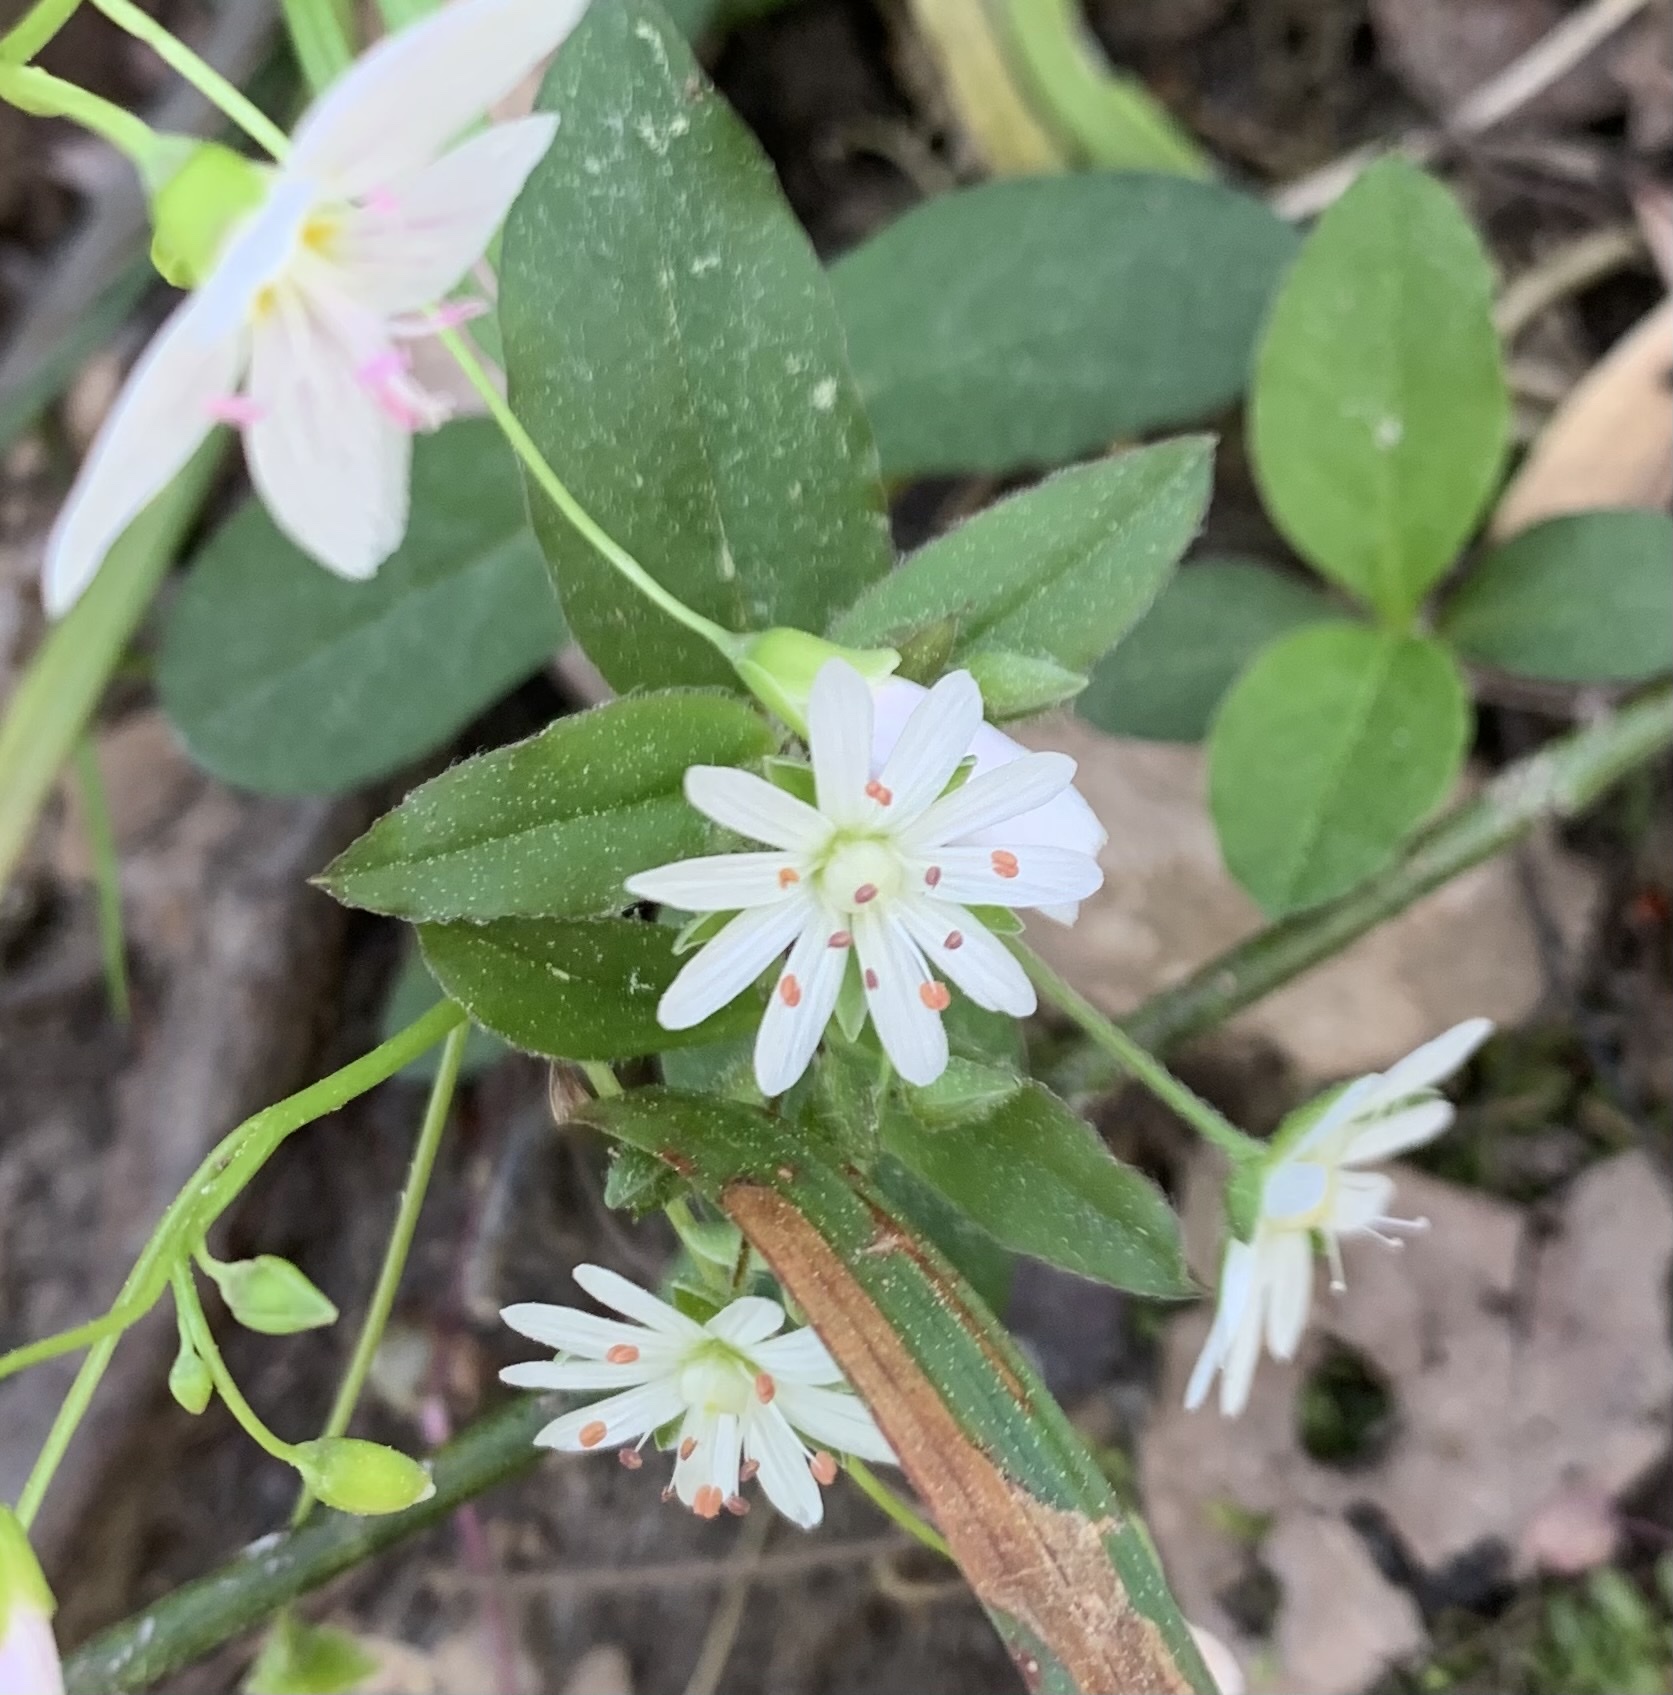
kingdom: Plantae
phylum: Tracheophyta
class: Magnoliopsida
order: Caryophyllales
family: Caryophyllaceae
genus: Stellaria
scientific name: Stellaria pubera
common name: Star chickweed
